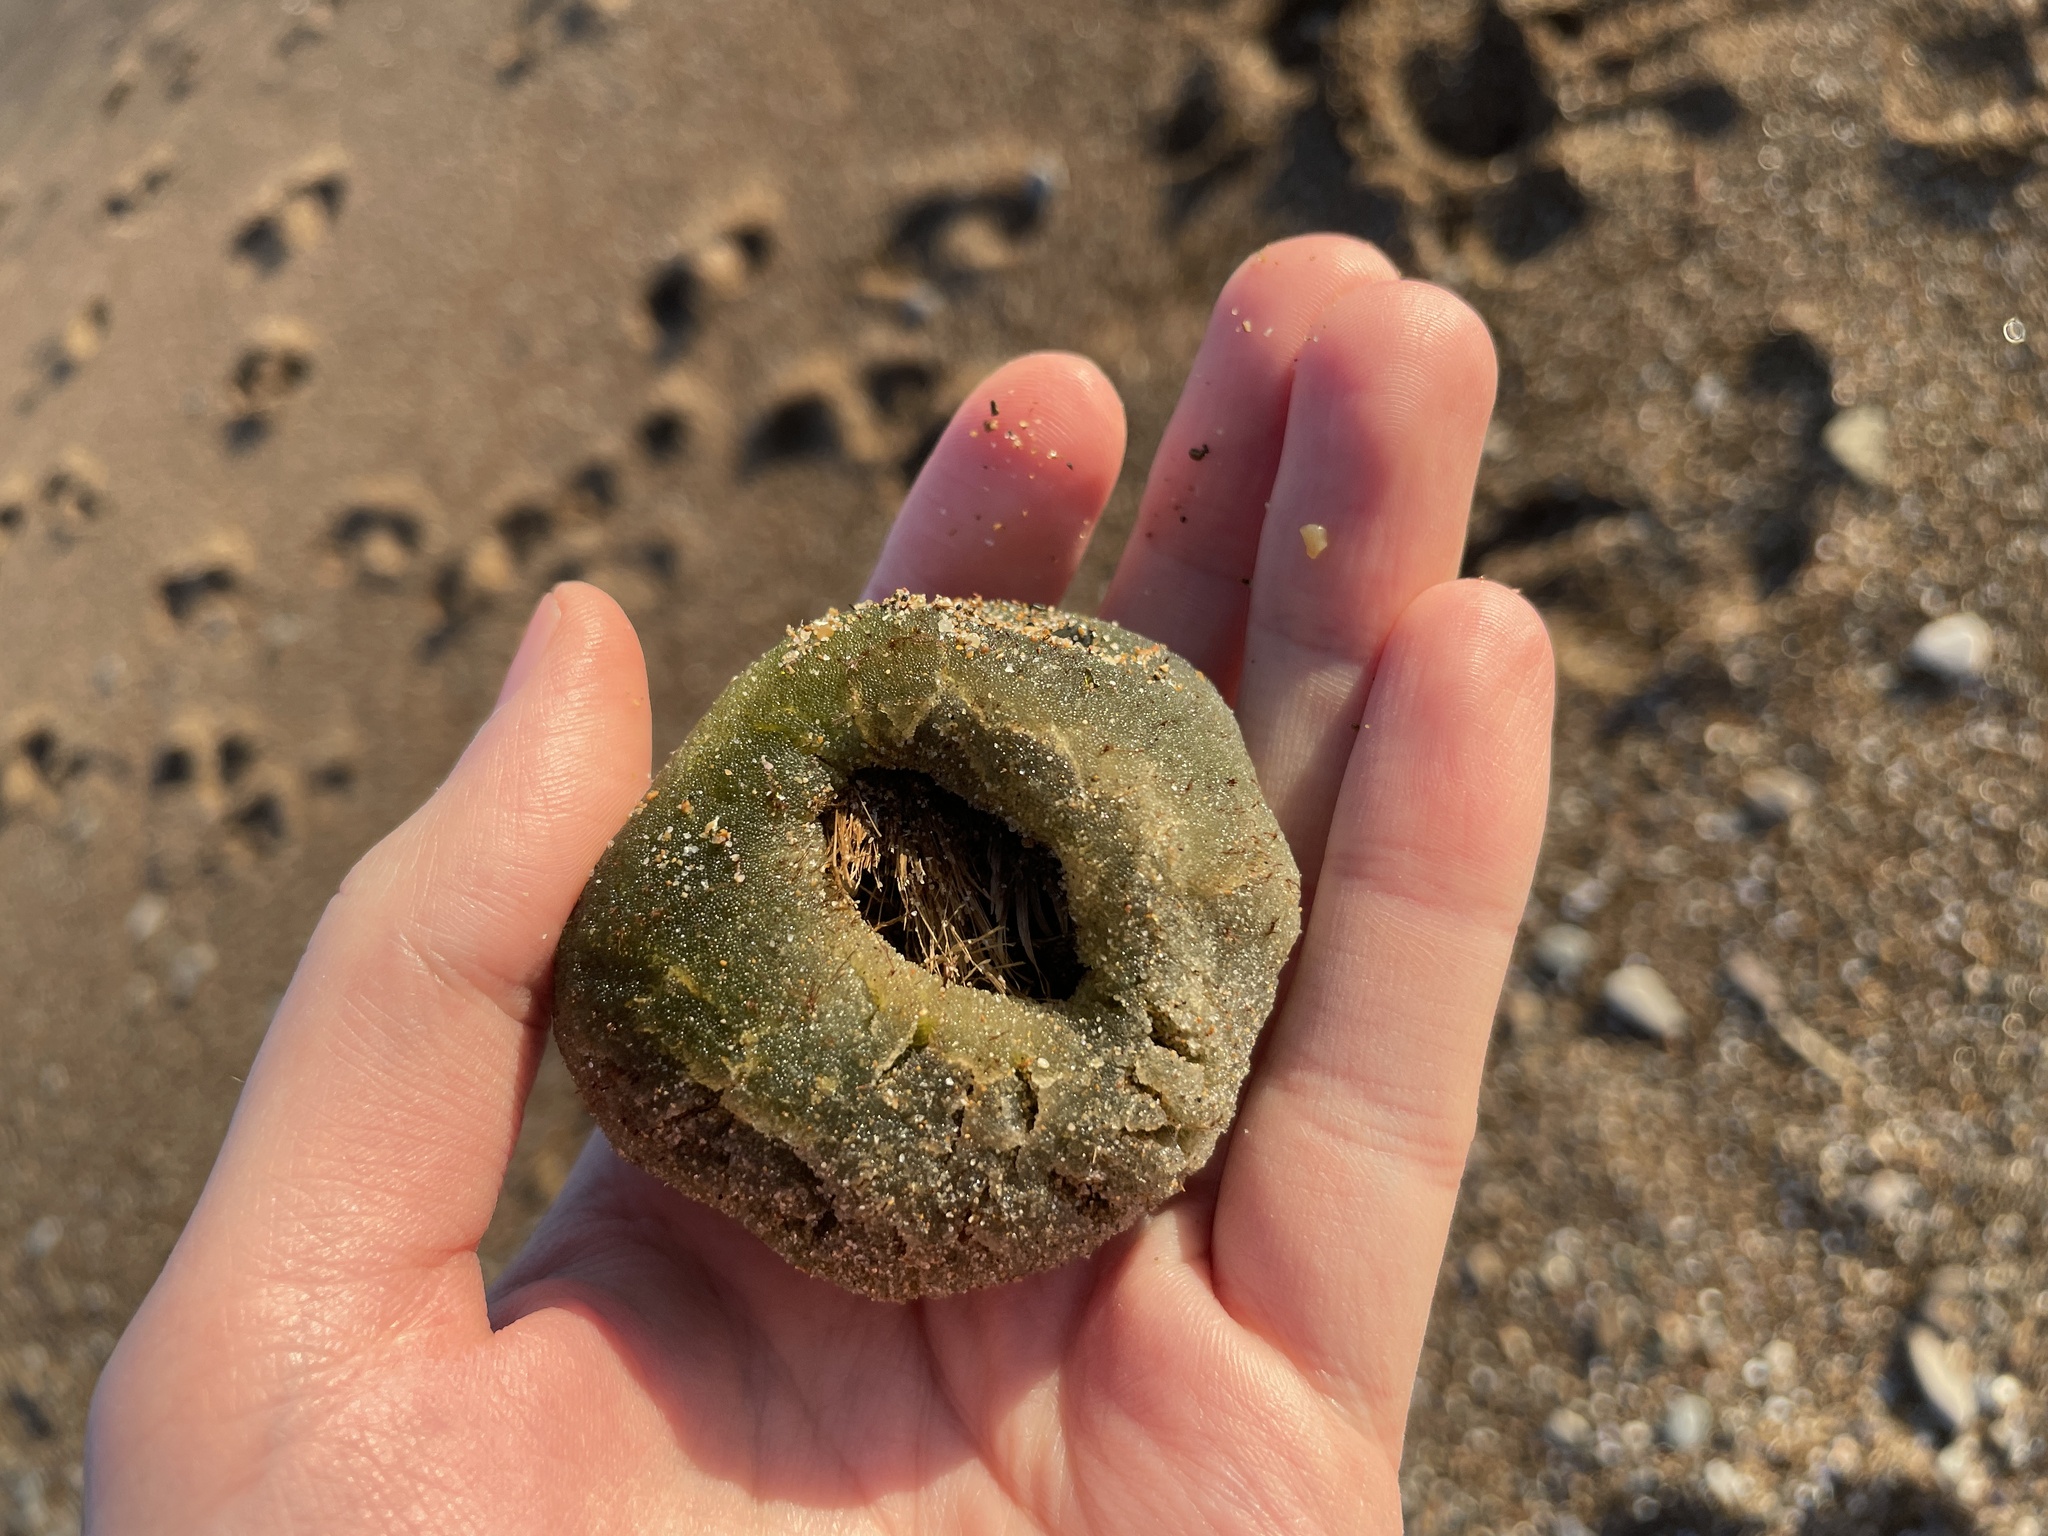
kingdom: Plantae
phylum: Chlorophyta
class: Ulvophyceae
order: Bryopsidales
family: Codiaceae
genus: Codium
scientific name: Codium bursa
